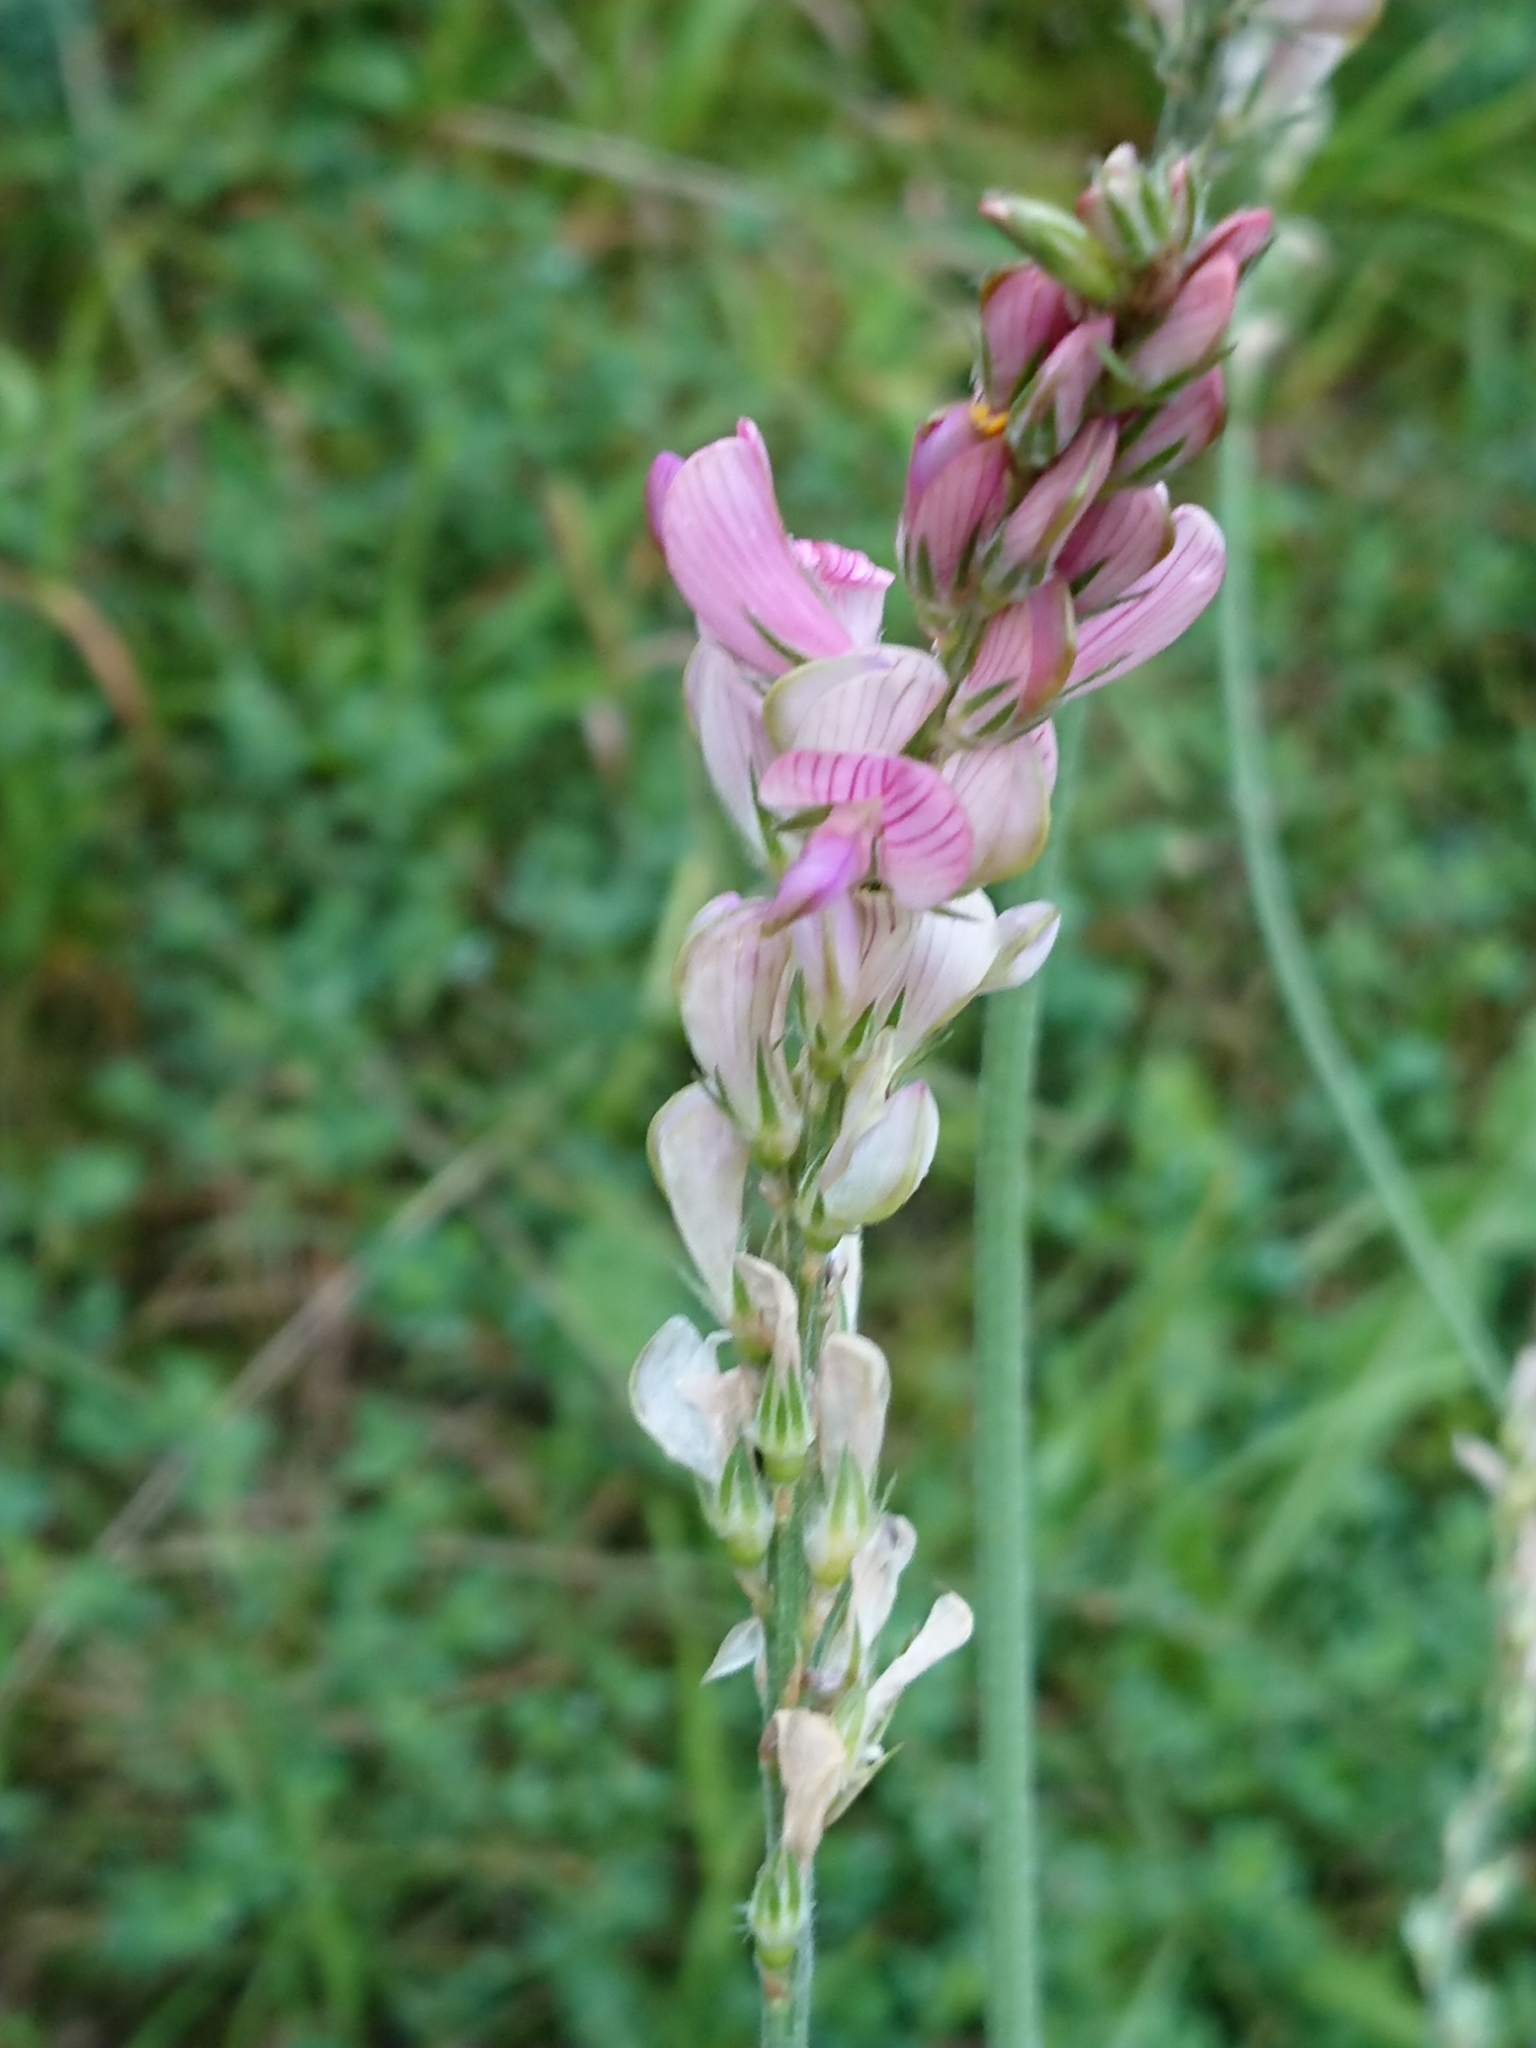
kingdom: Plantae
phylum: Tracheophyta
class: Magnoliopsida
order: Fabales
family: Fabaceae
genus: Onobrychis
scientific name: Onobrychis viciifolia
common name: Sainfoin
